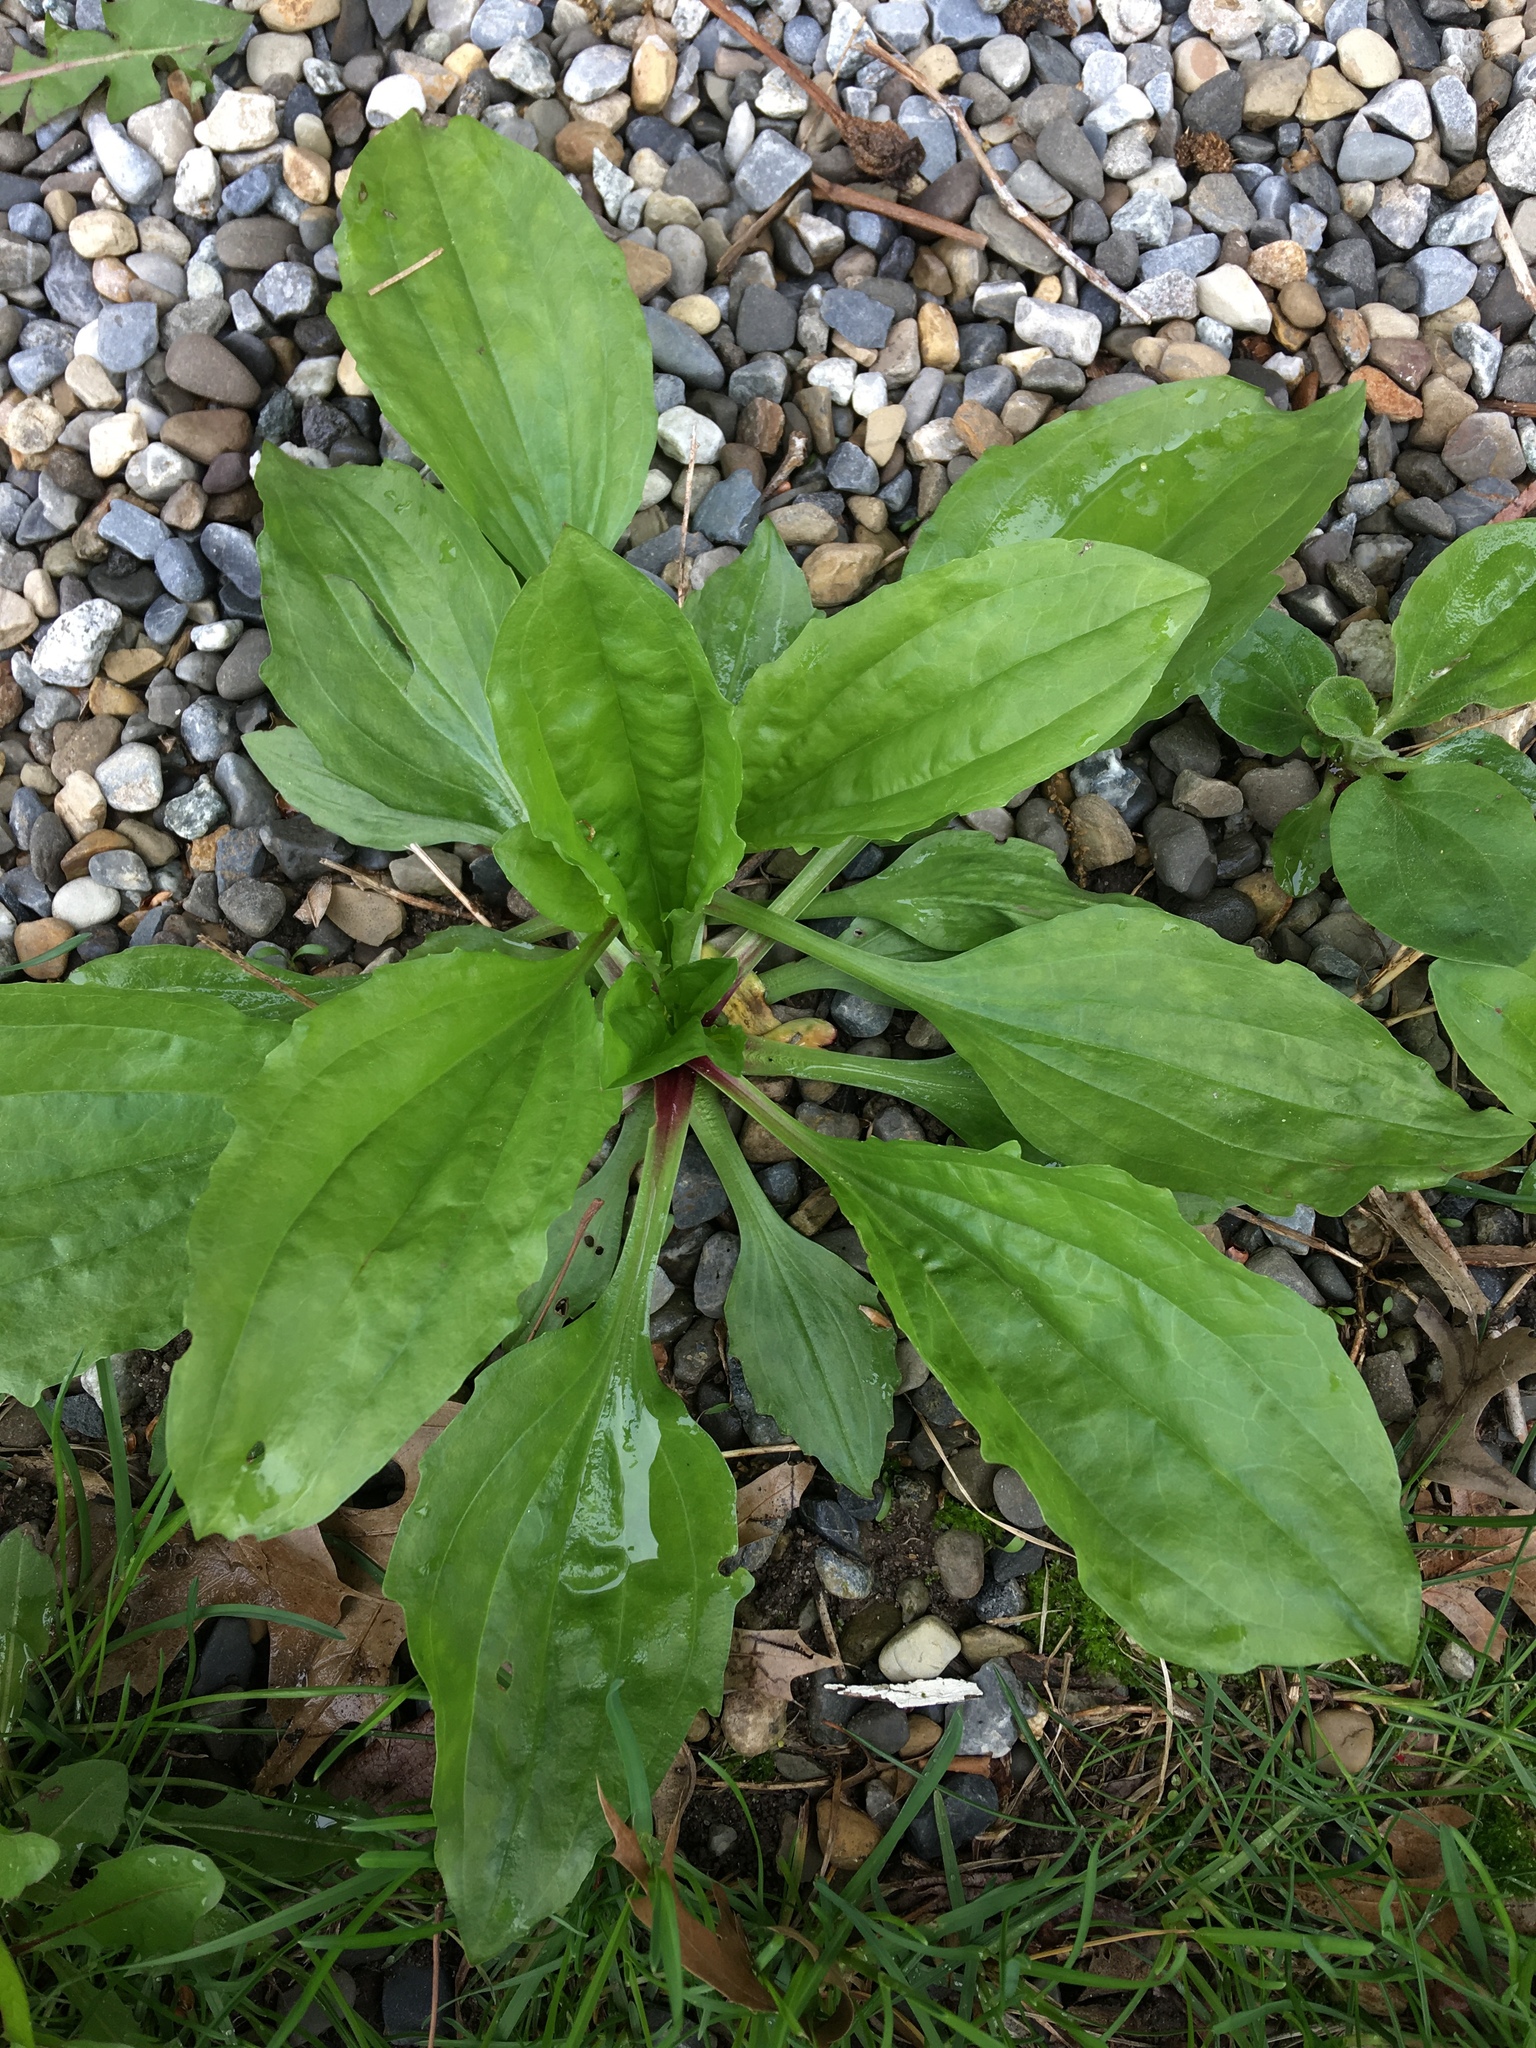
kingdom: Plantae
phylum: Tracheophyta
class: Magnoliopsida
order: Lamiales
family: Plantaginaceae
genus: Plantago
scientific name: Plantago rugelii
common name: American plantain
